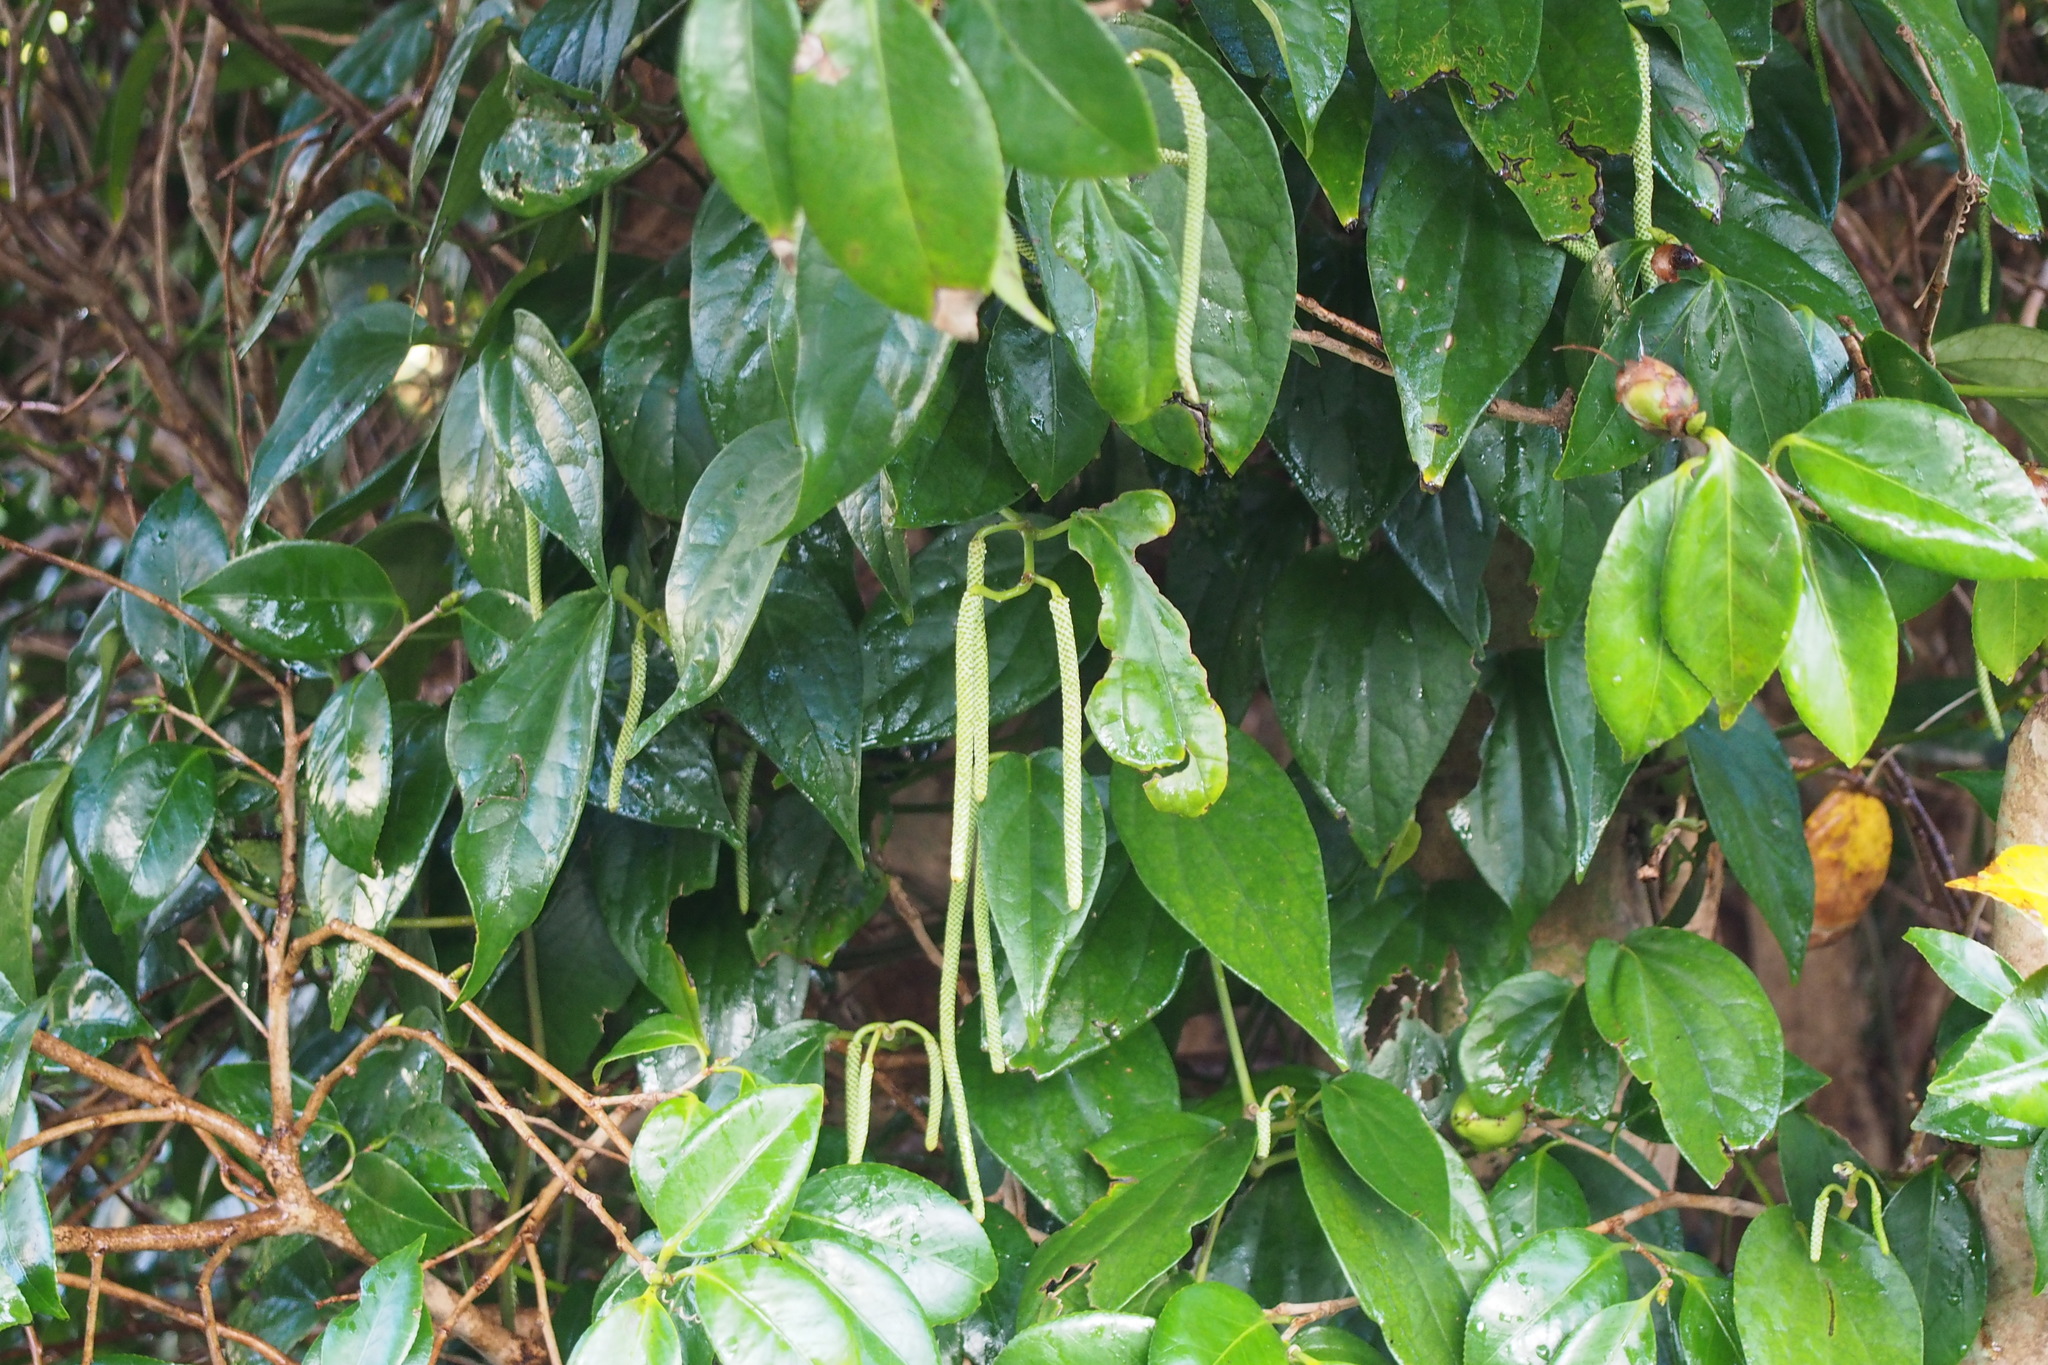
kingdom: Plantae
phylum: Tracheophyta
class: Magnoliopsida
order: Piperales
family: Piperaceae
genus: Piper
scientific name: Piper kadsura
